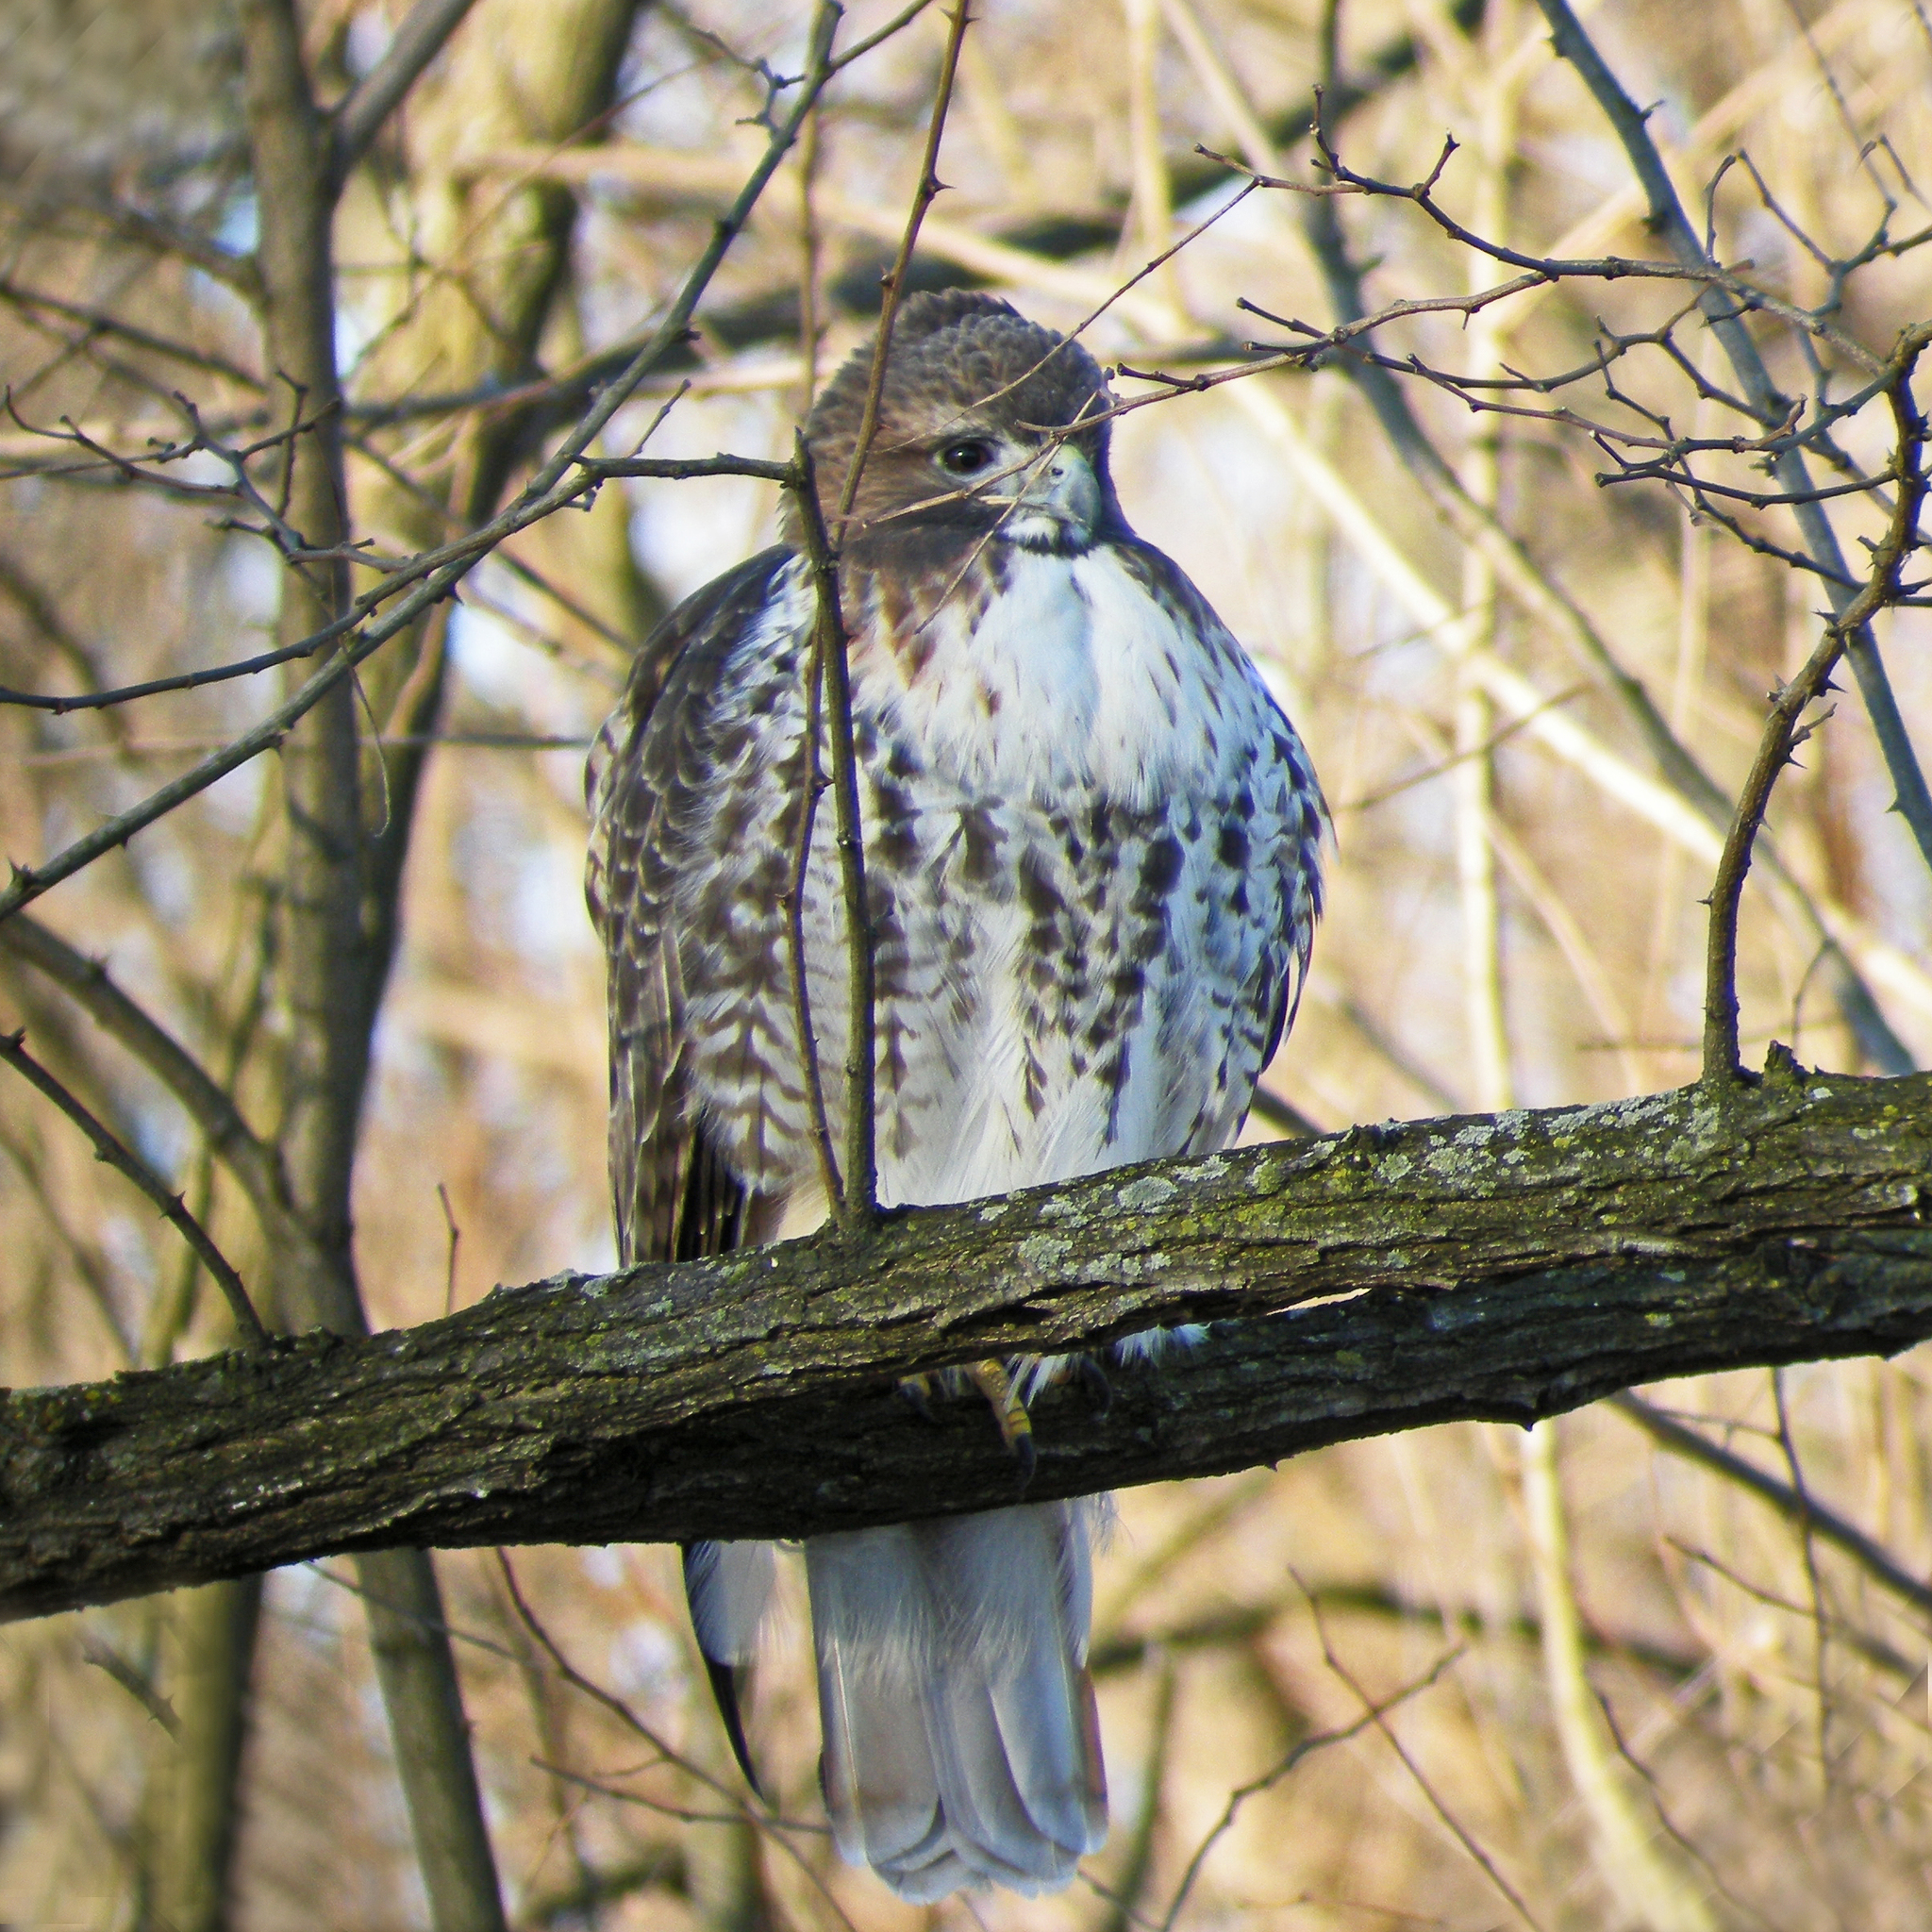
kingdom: Animalia
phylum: Chordata
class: Aves
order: Accipitriformes
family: Accipitridae
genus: Buteo
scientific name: Buteo jamaicensis
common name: Red-tailed hawk
